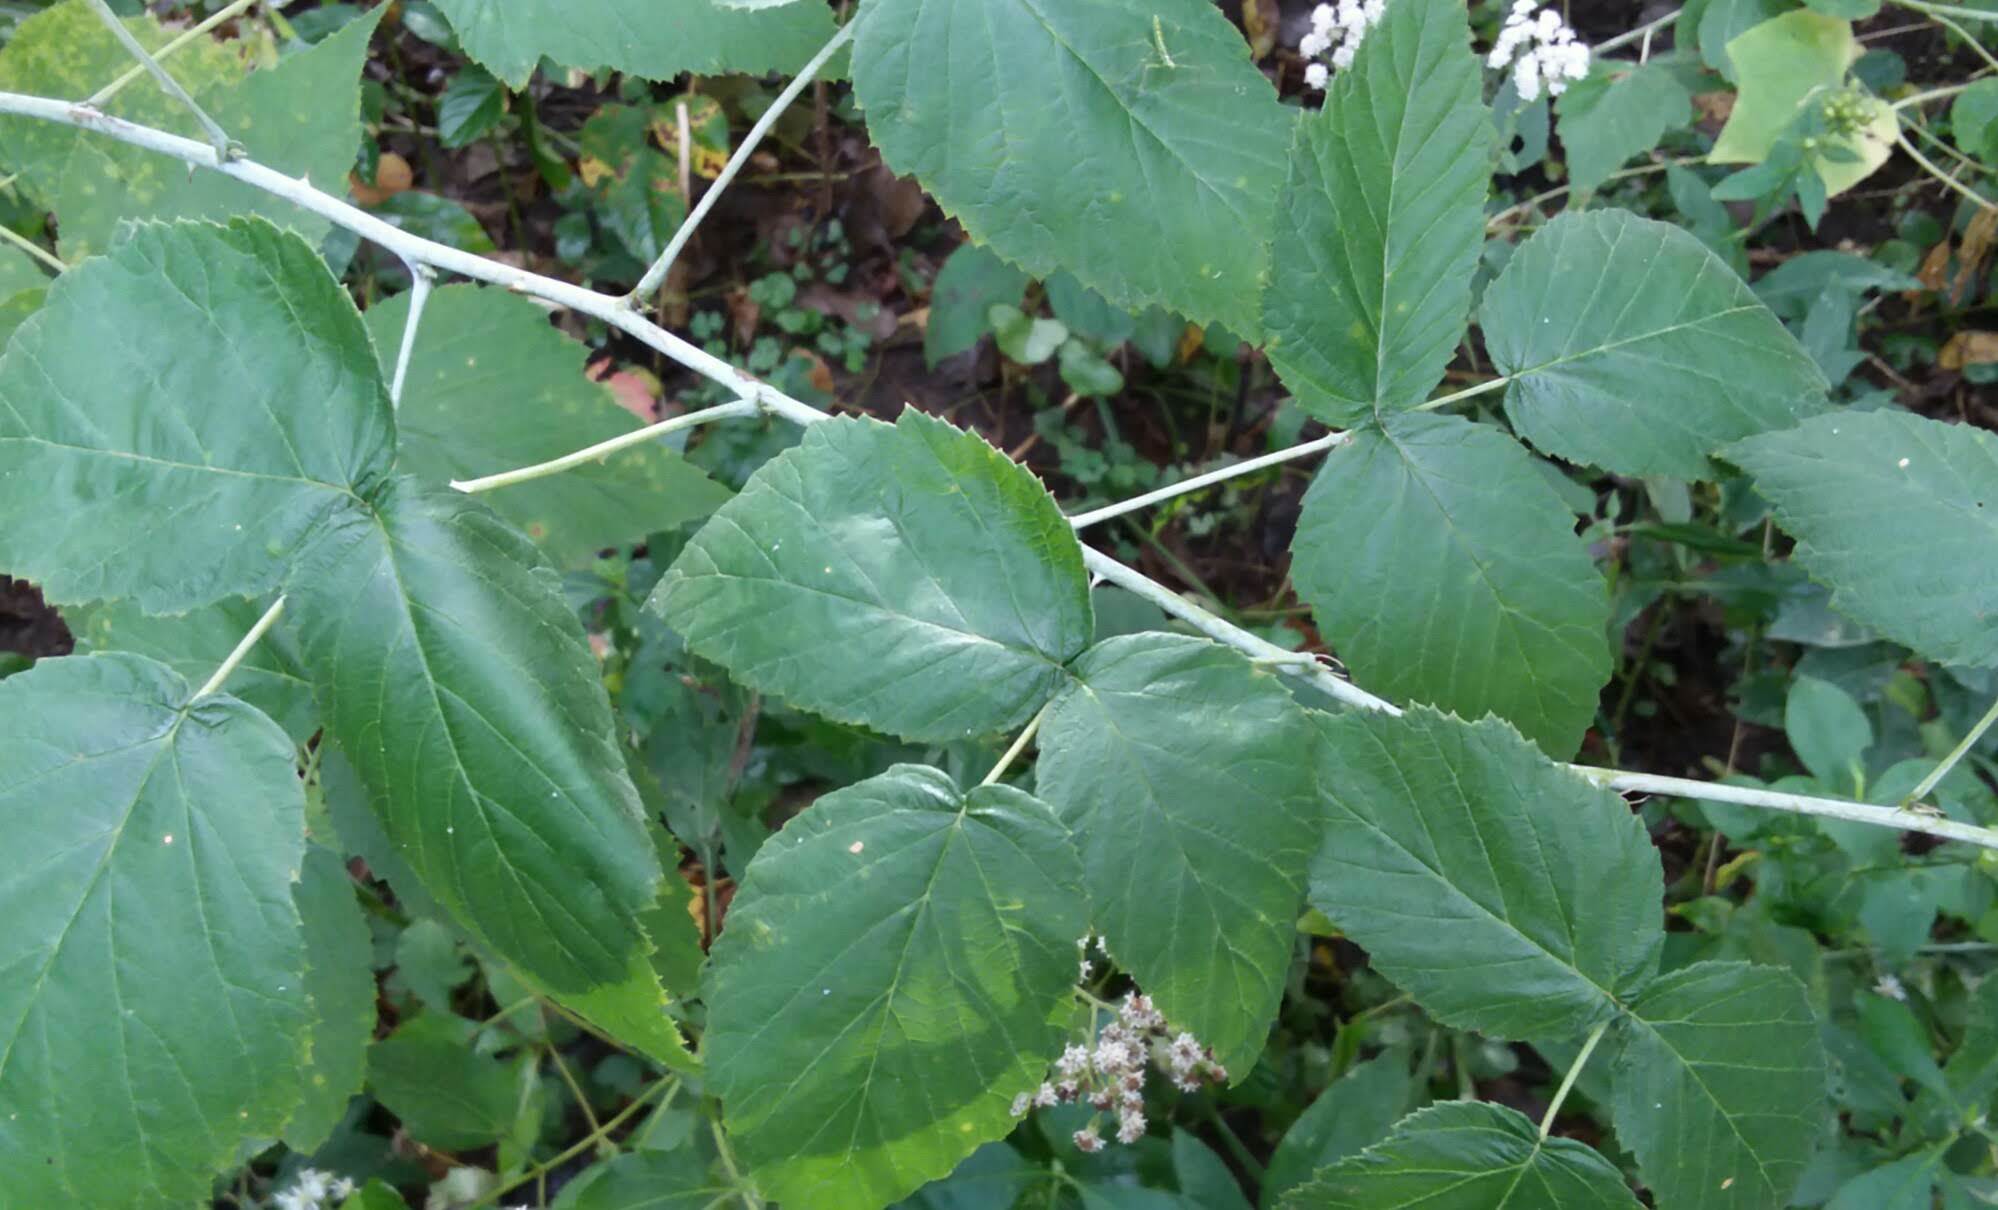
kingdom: Plantae
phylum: Tracheophyta
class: Magnoliopsida
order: Rosales
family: Rosaceae
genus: Rubus
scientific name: Rubus occidentalis
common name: Black raspberry
